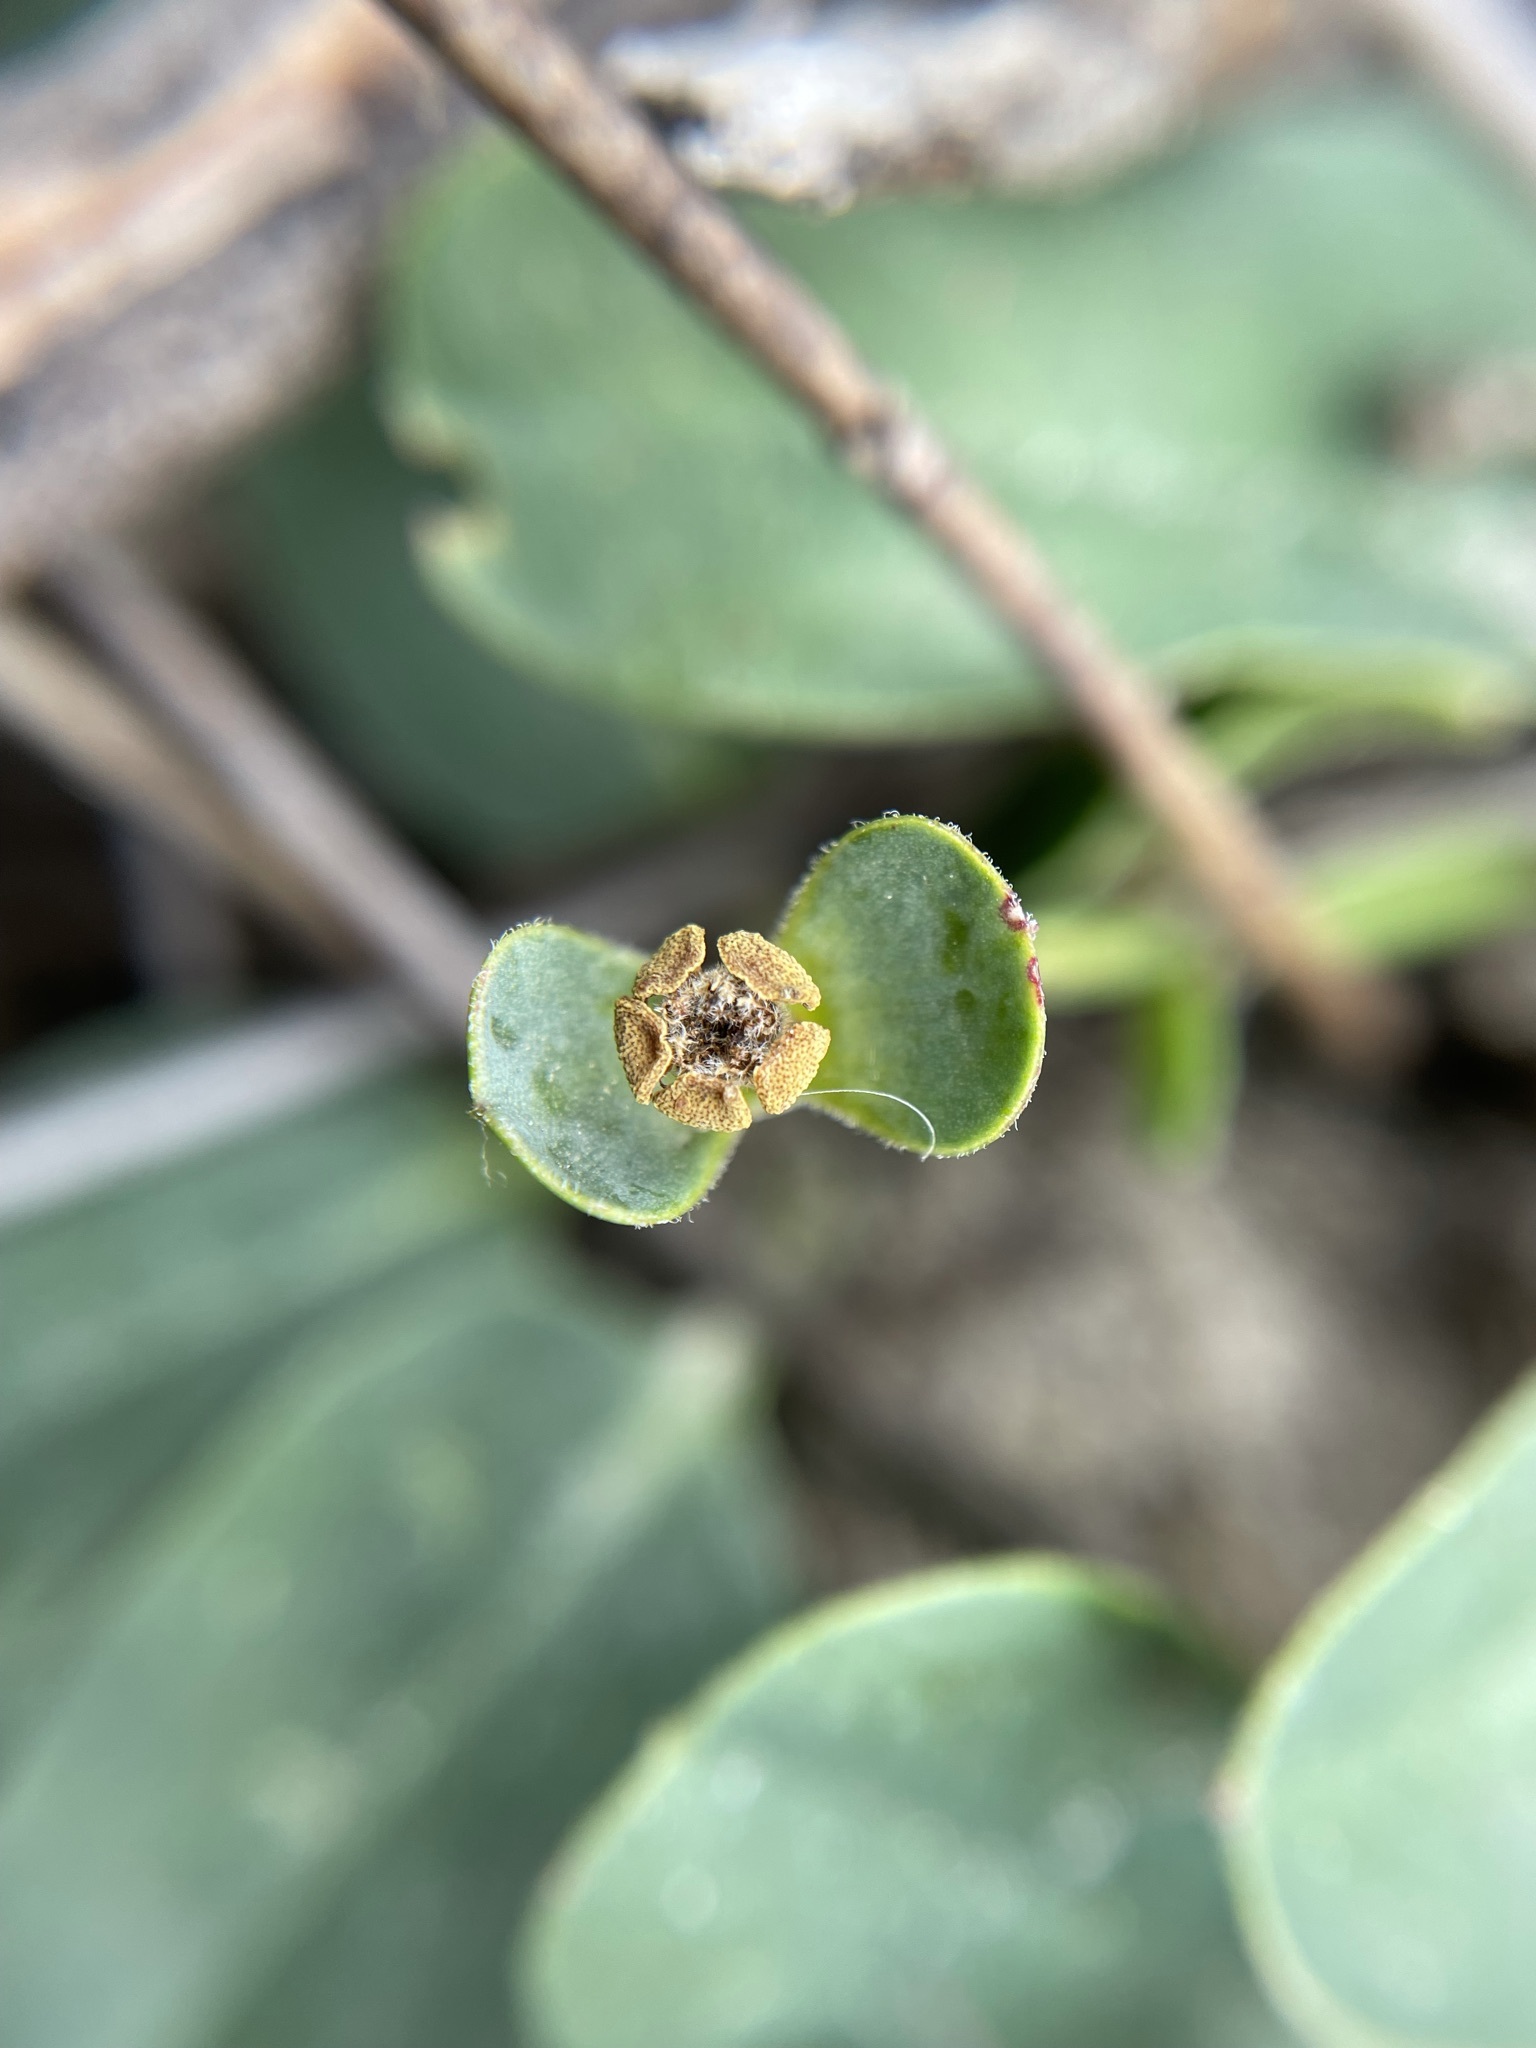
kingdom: Plantae
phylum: Tracheophyta
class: Magnoliopsida
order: Malpighiales
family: Euphorbiaceae
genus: Euphorbia
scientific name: Euphorbia tuberosa
